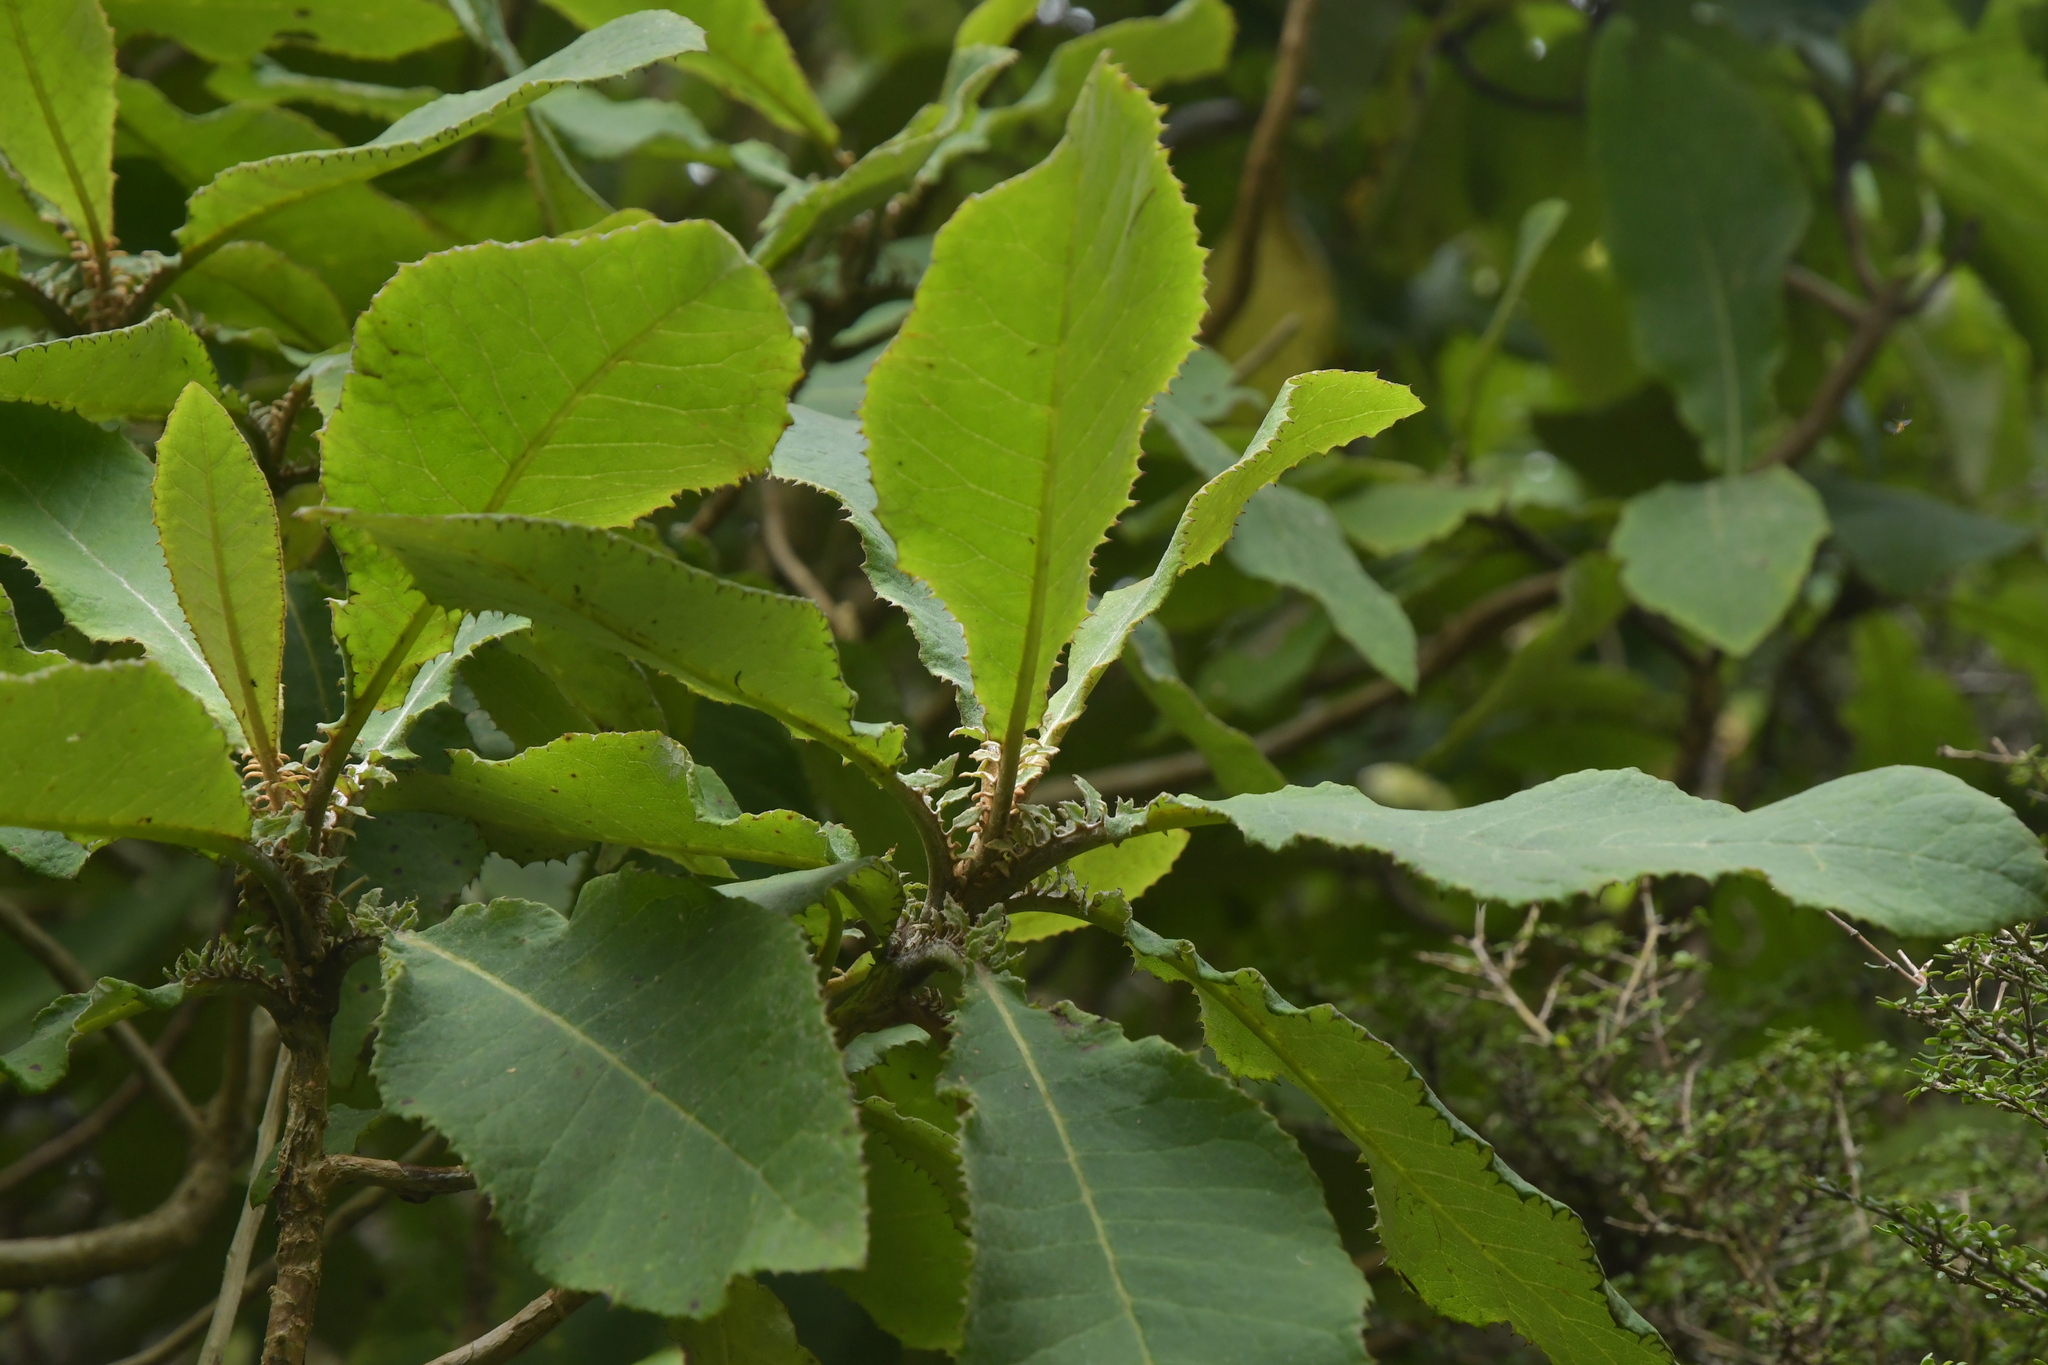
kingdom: Plantae
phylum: Tracheophyta
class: Magnoliopsida
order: Asterales
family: Asteraceae
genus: Brachyglottis
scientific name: Brachyglottis hectorii
